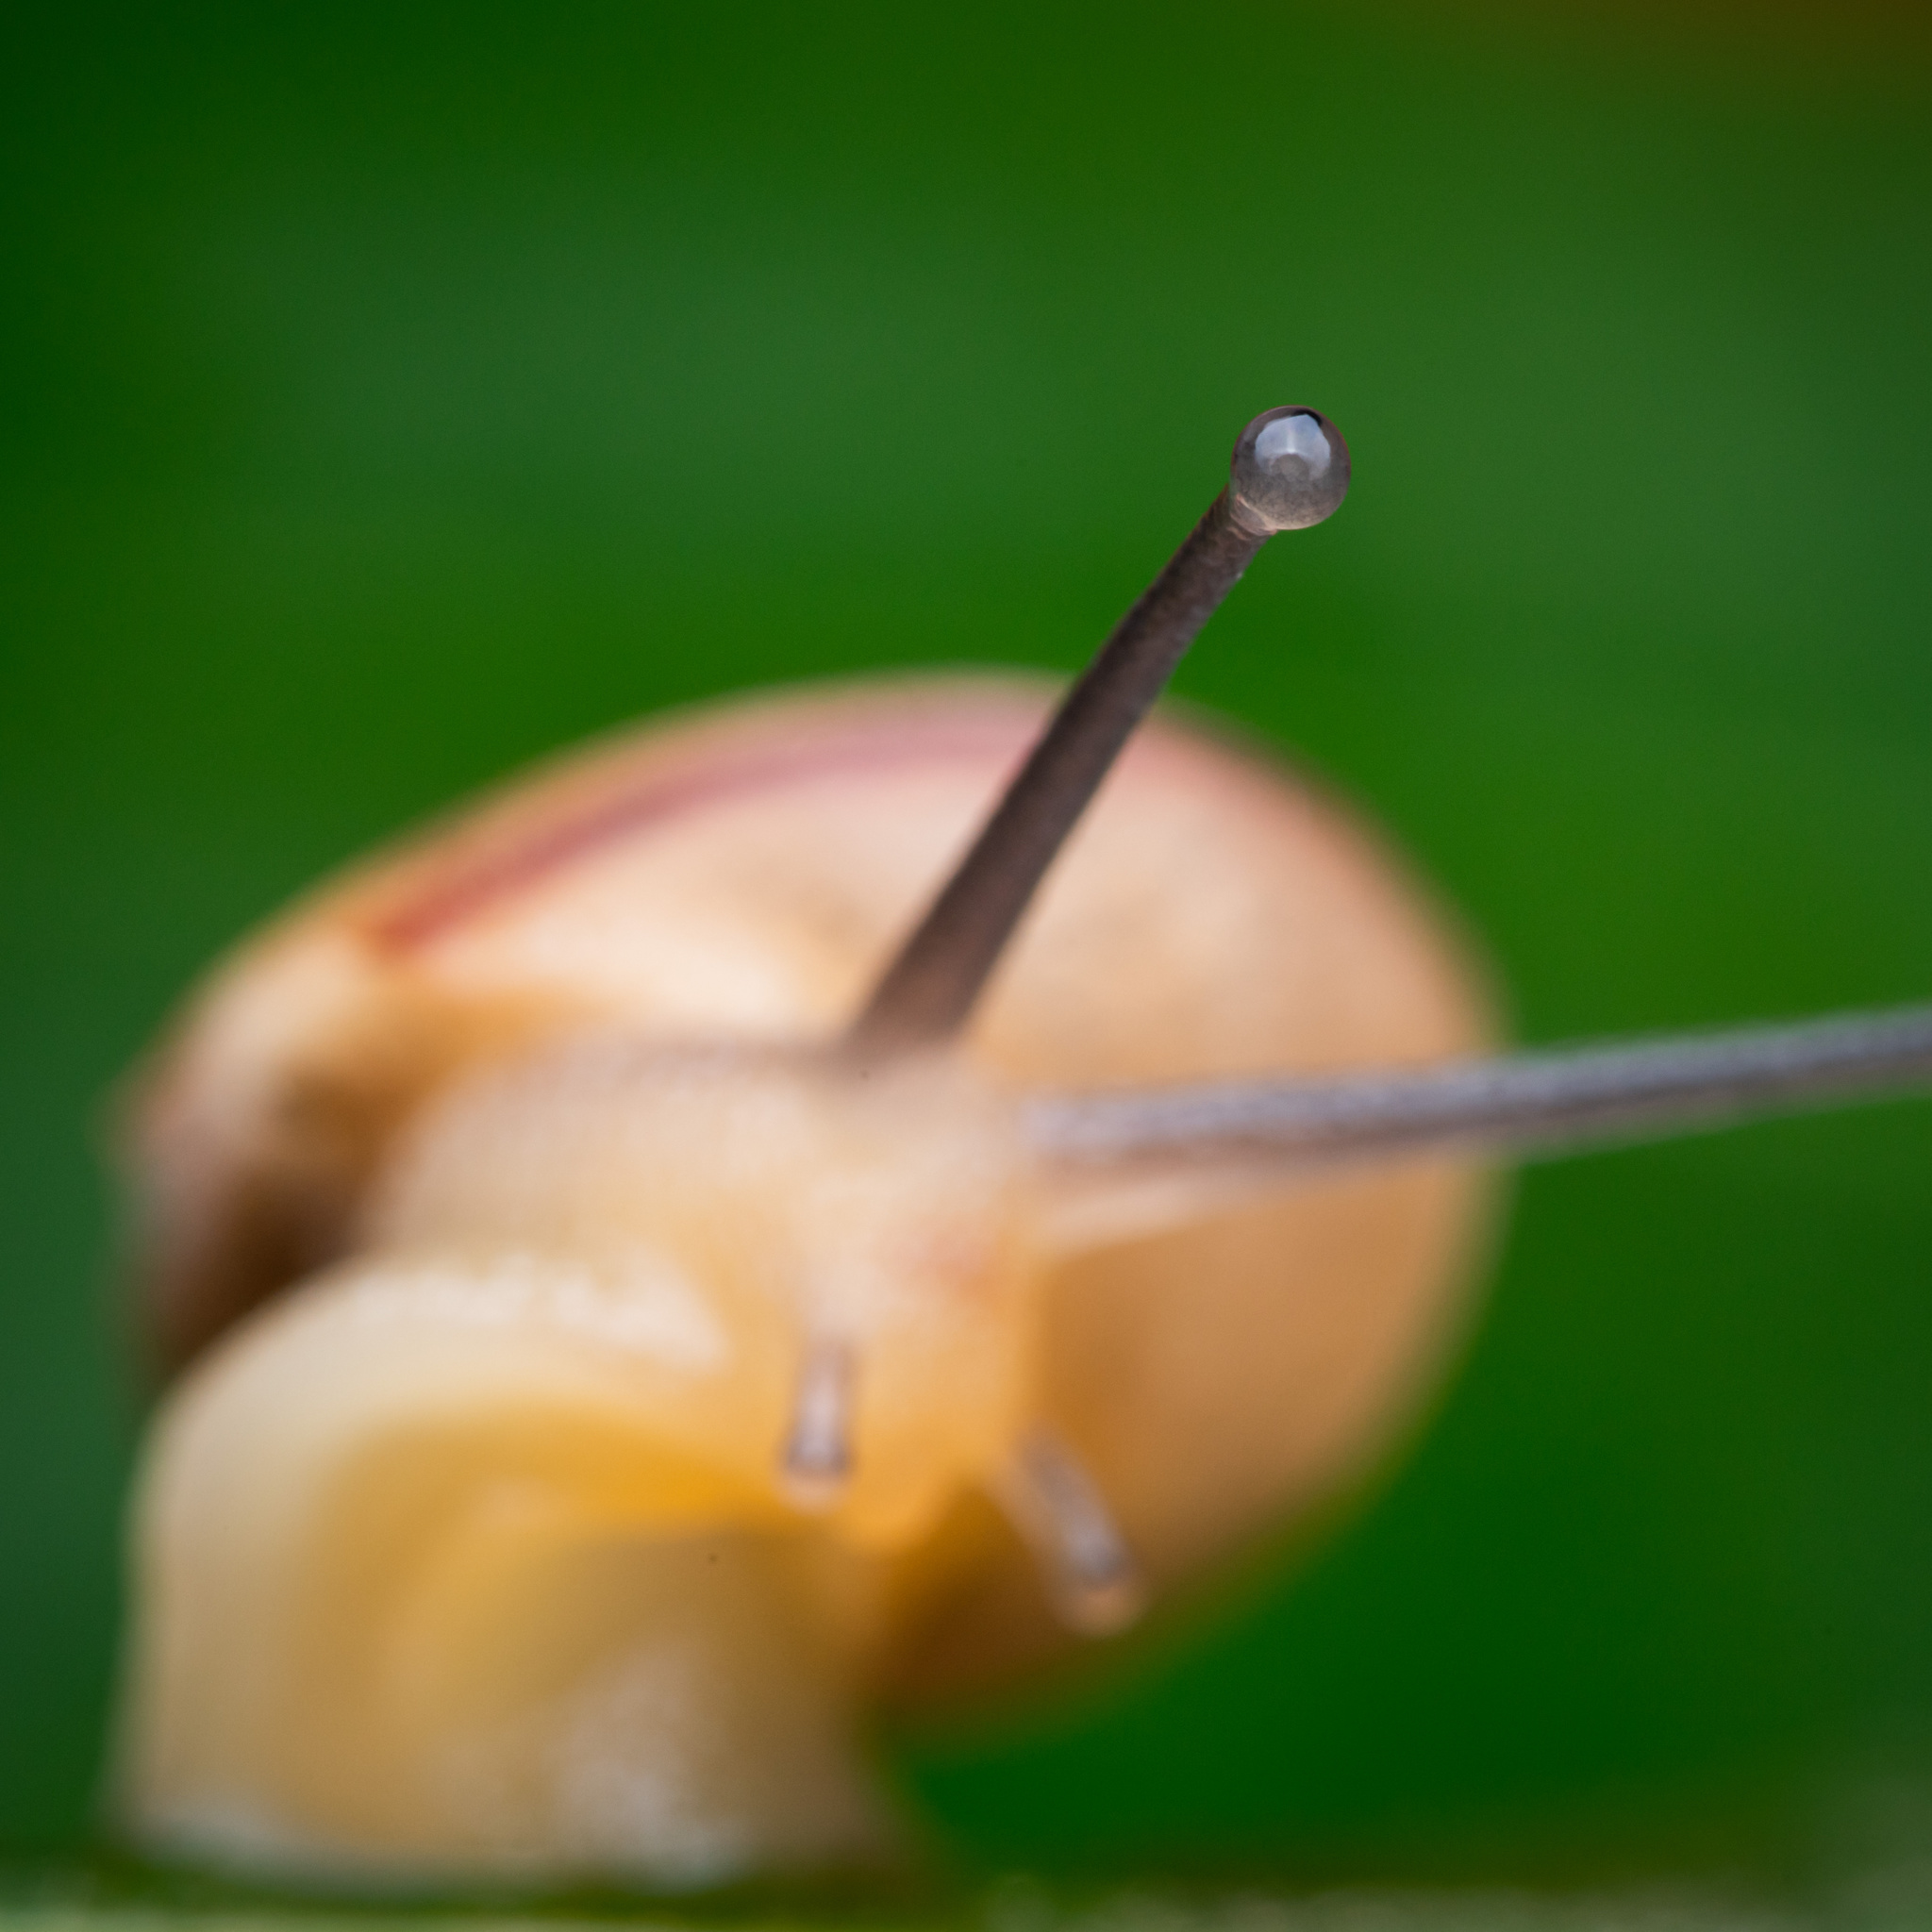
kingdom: Animalia
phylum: Mollusca
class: Gastropoda
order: Stylommatophora
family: Camaenidae
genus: Bradybaena
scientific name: Bradybaena similaris
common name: Asian trampsnail
